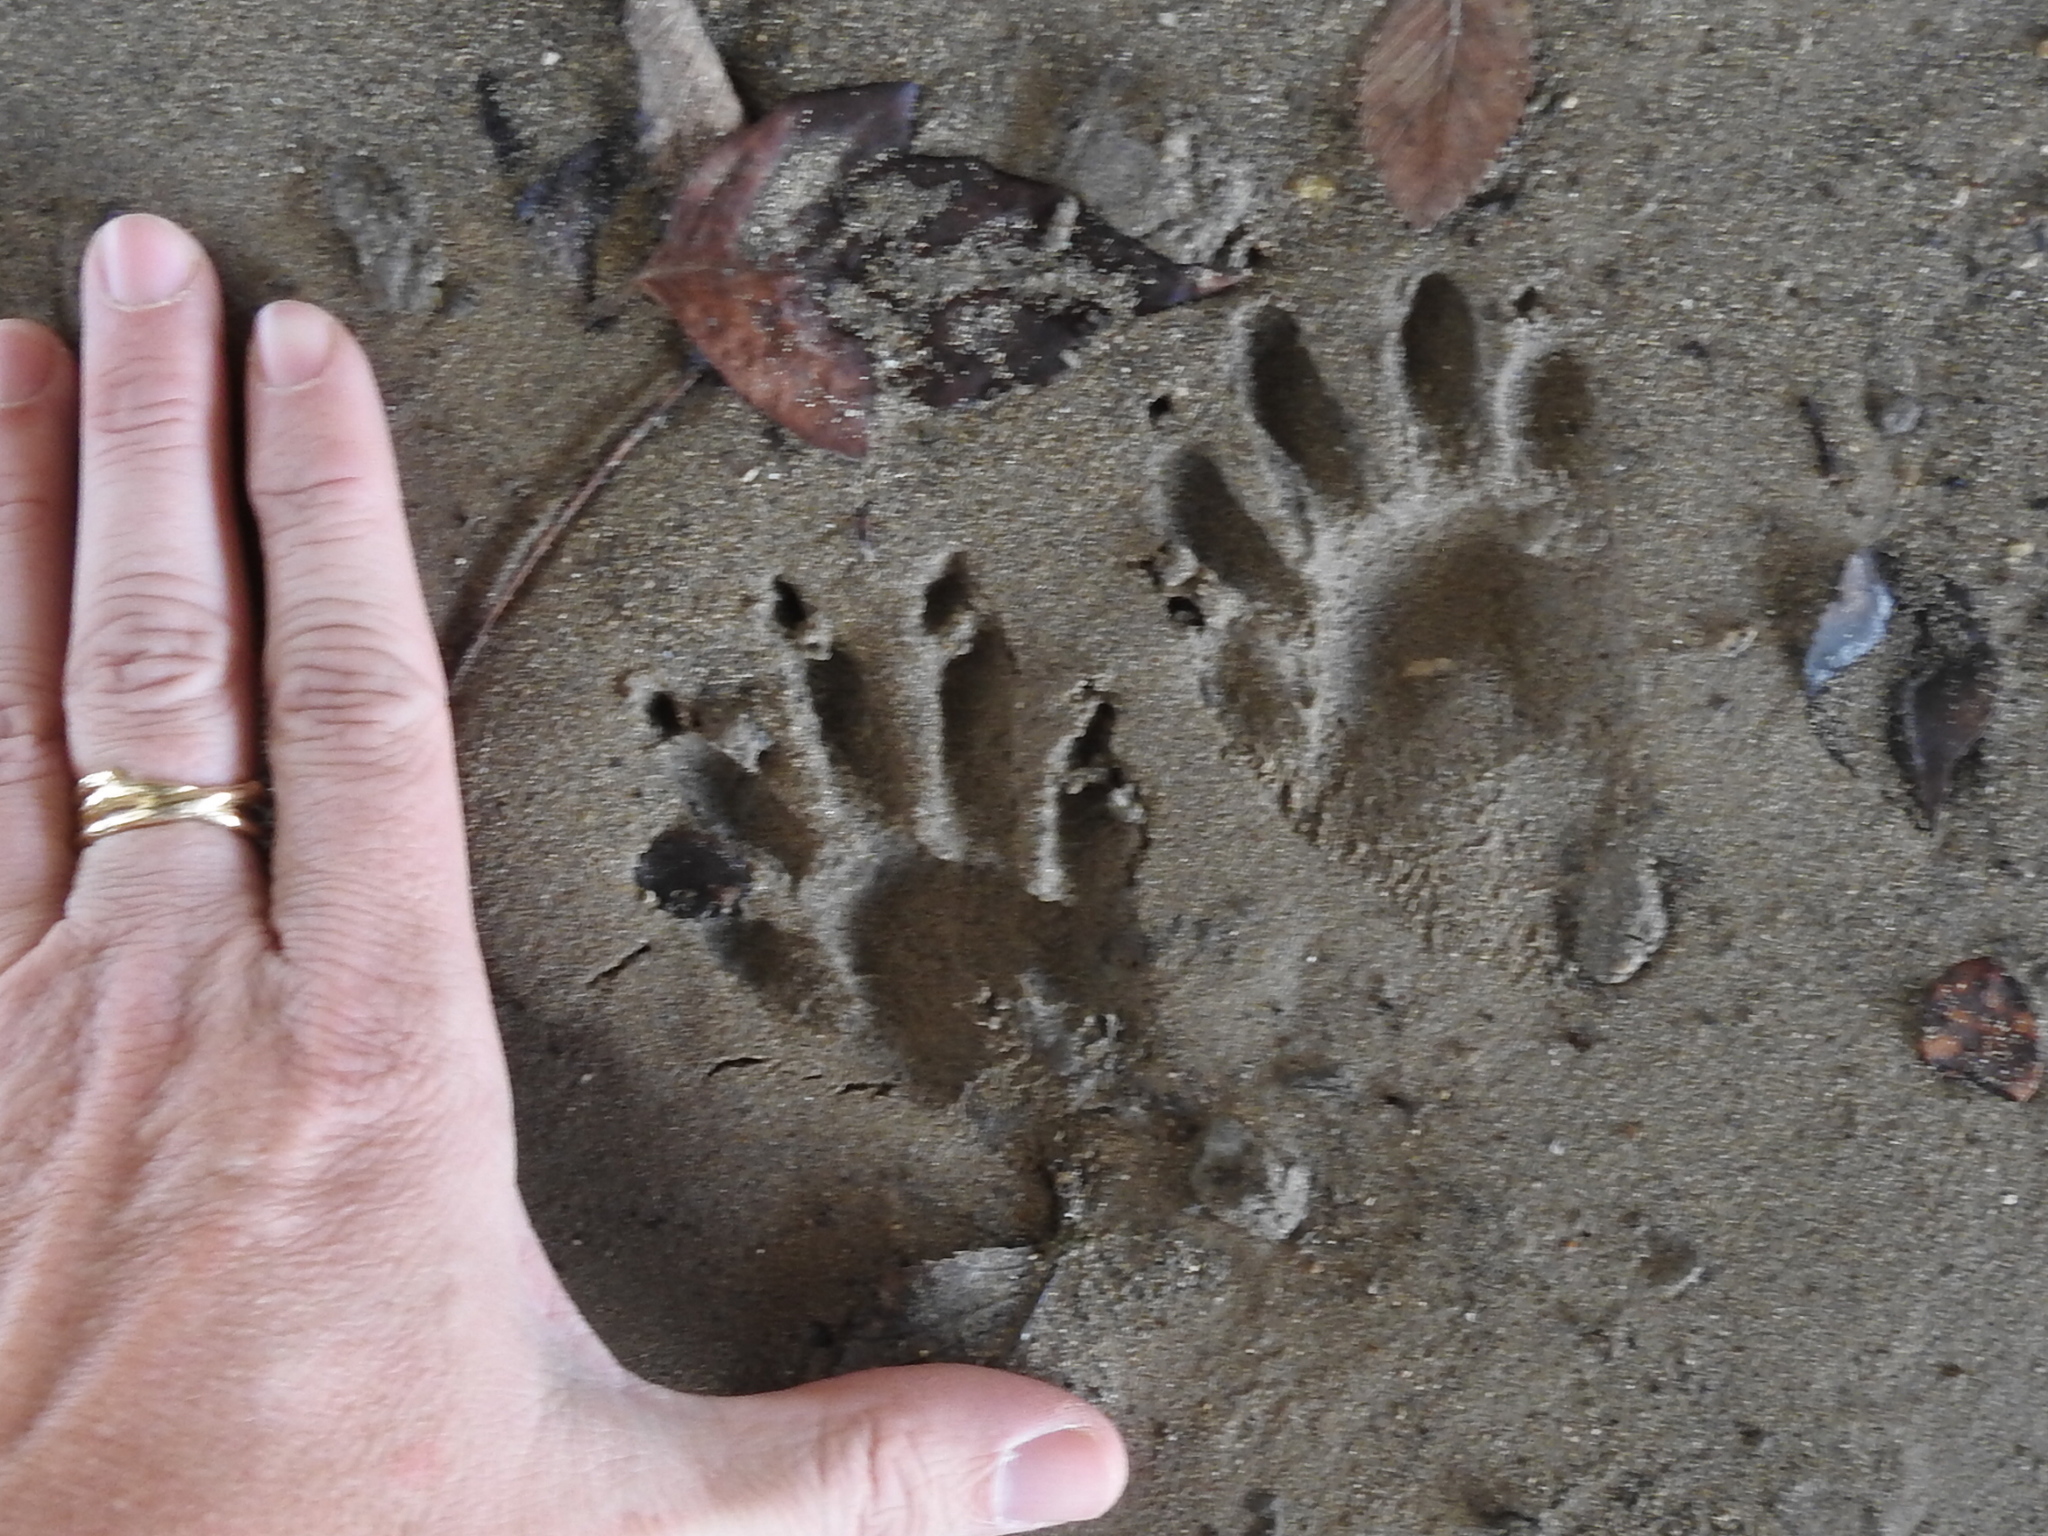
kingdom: Animalia
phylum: Chordata
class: Mammalia
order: Carnivora
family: Procyonidae
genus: Procyon
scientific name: Procyon lotor
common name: Raccoon
